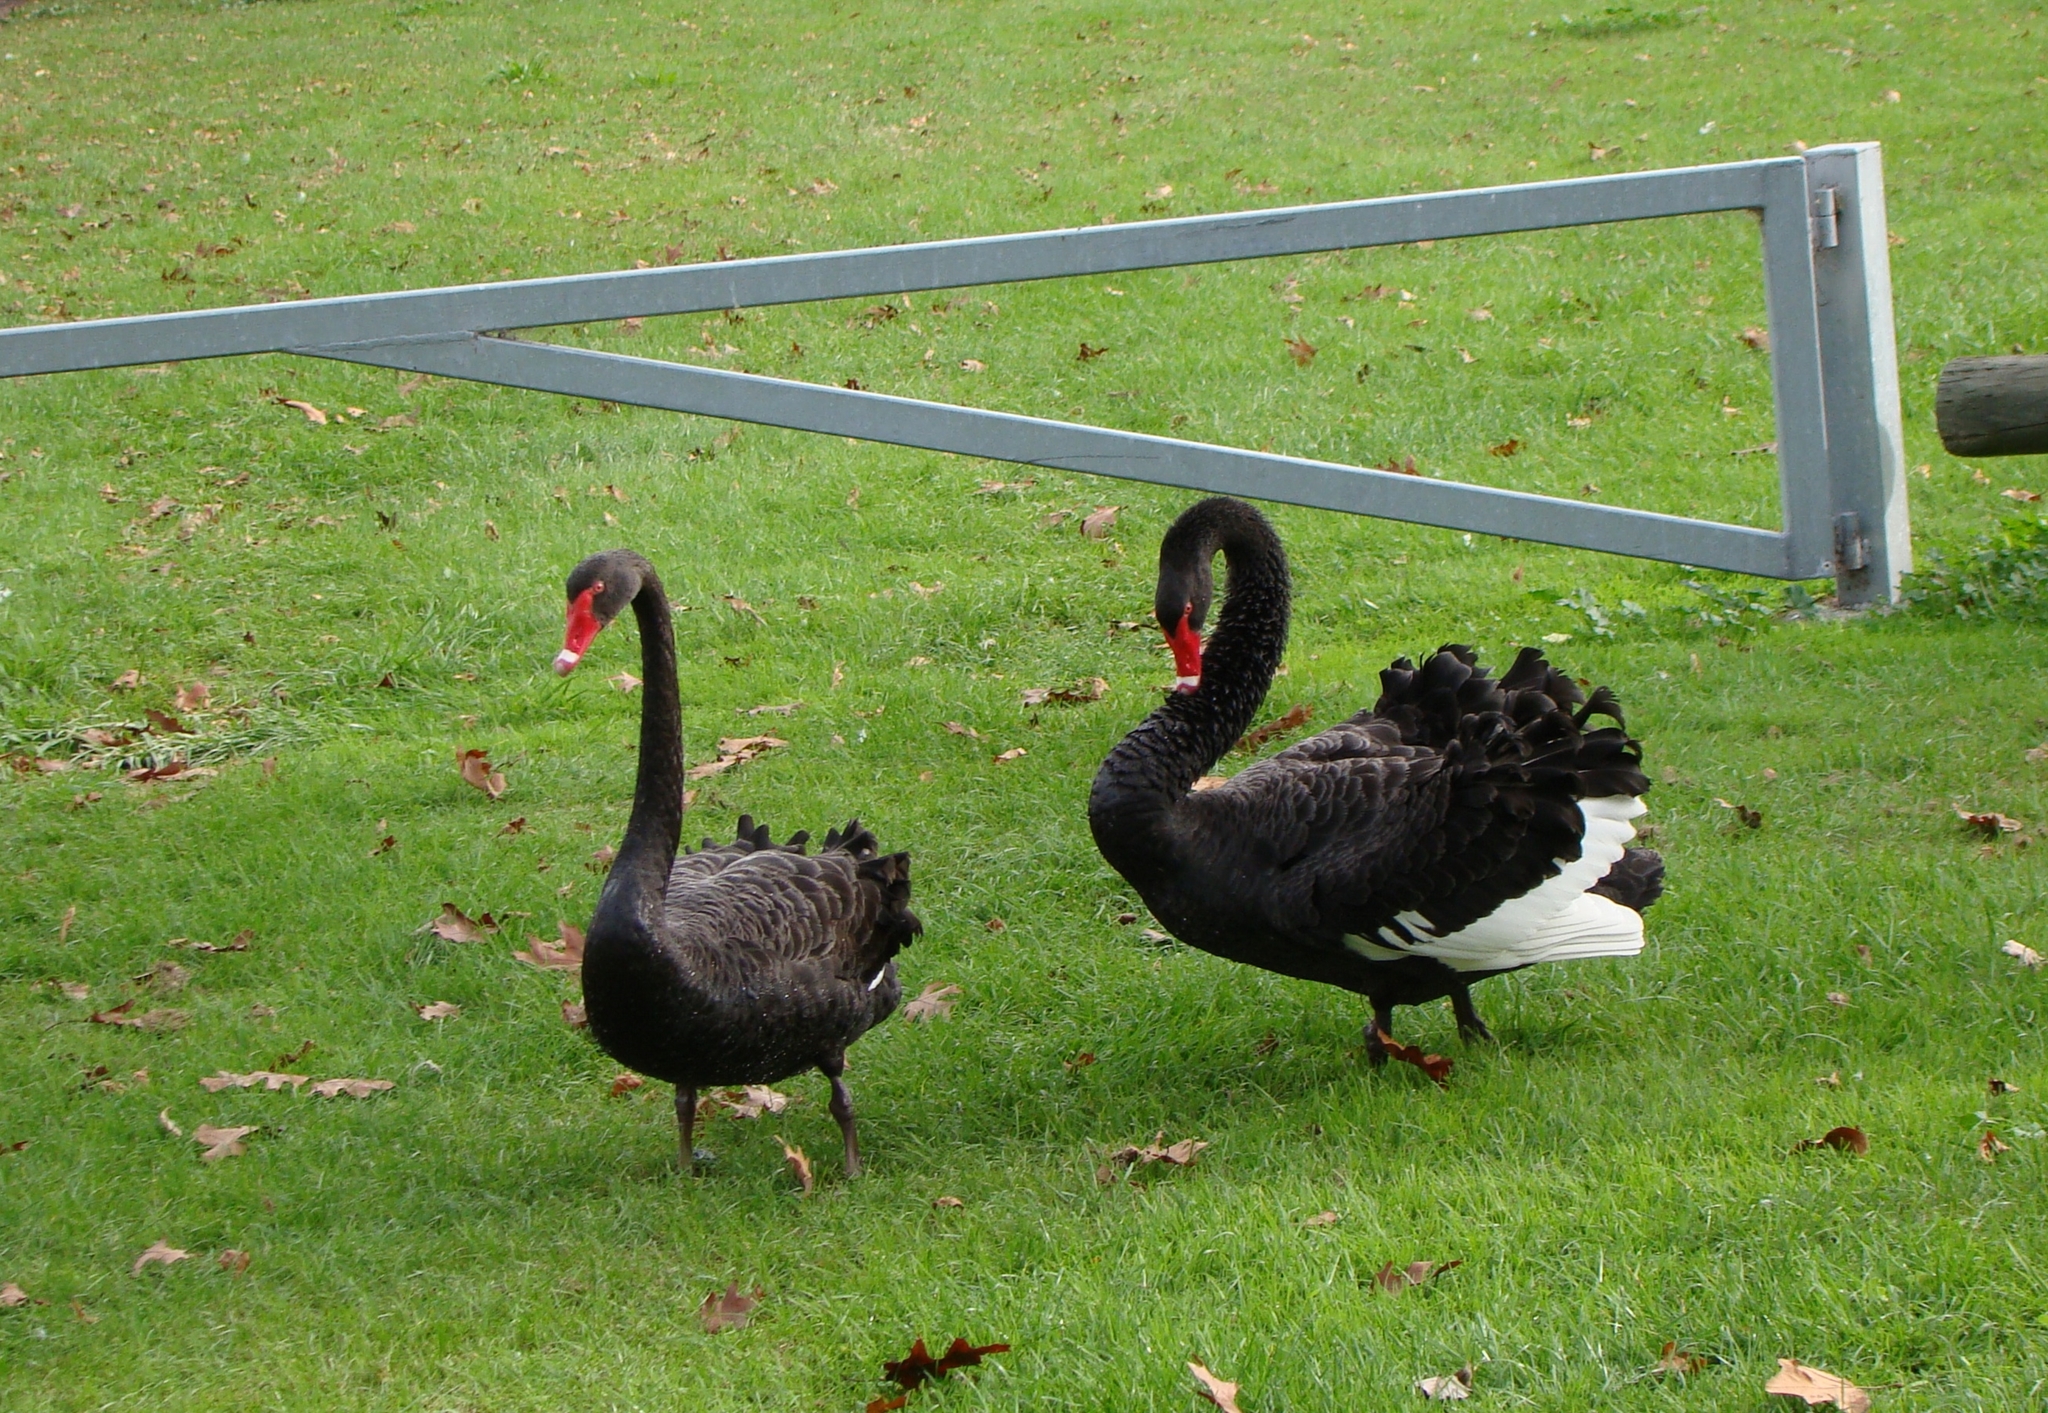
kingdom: Animalia
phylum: Chordata
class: Aves
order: Anseriformes
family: Anatidae
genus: Cygnus
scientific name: Cygnus atratus
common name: Black swan
